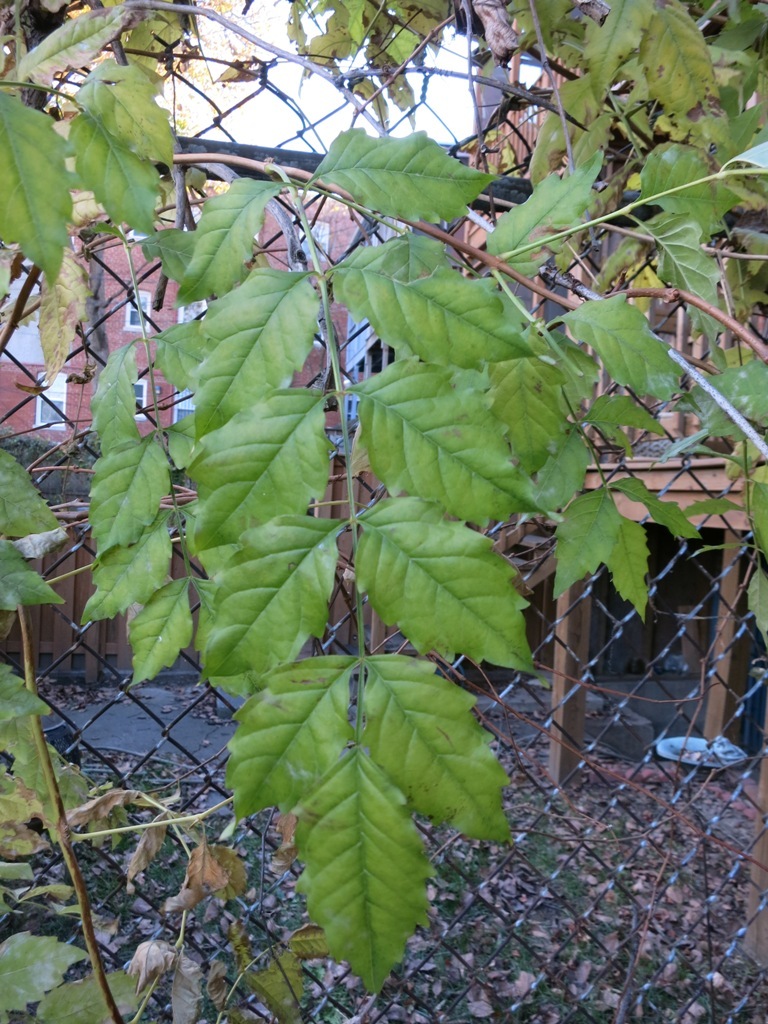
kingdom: Plantae
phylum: Tracheophyta
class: Magnoliopsida
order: Lamiales
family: Bignoniaceae
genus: Campsis
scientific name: Campsis radicans
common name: Trumpet-creeper
